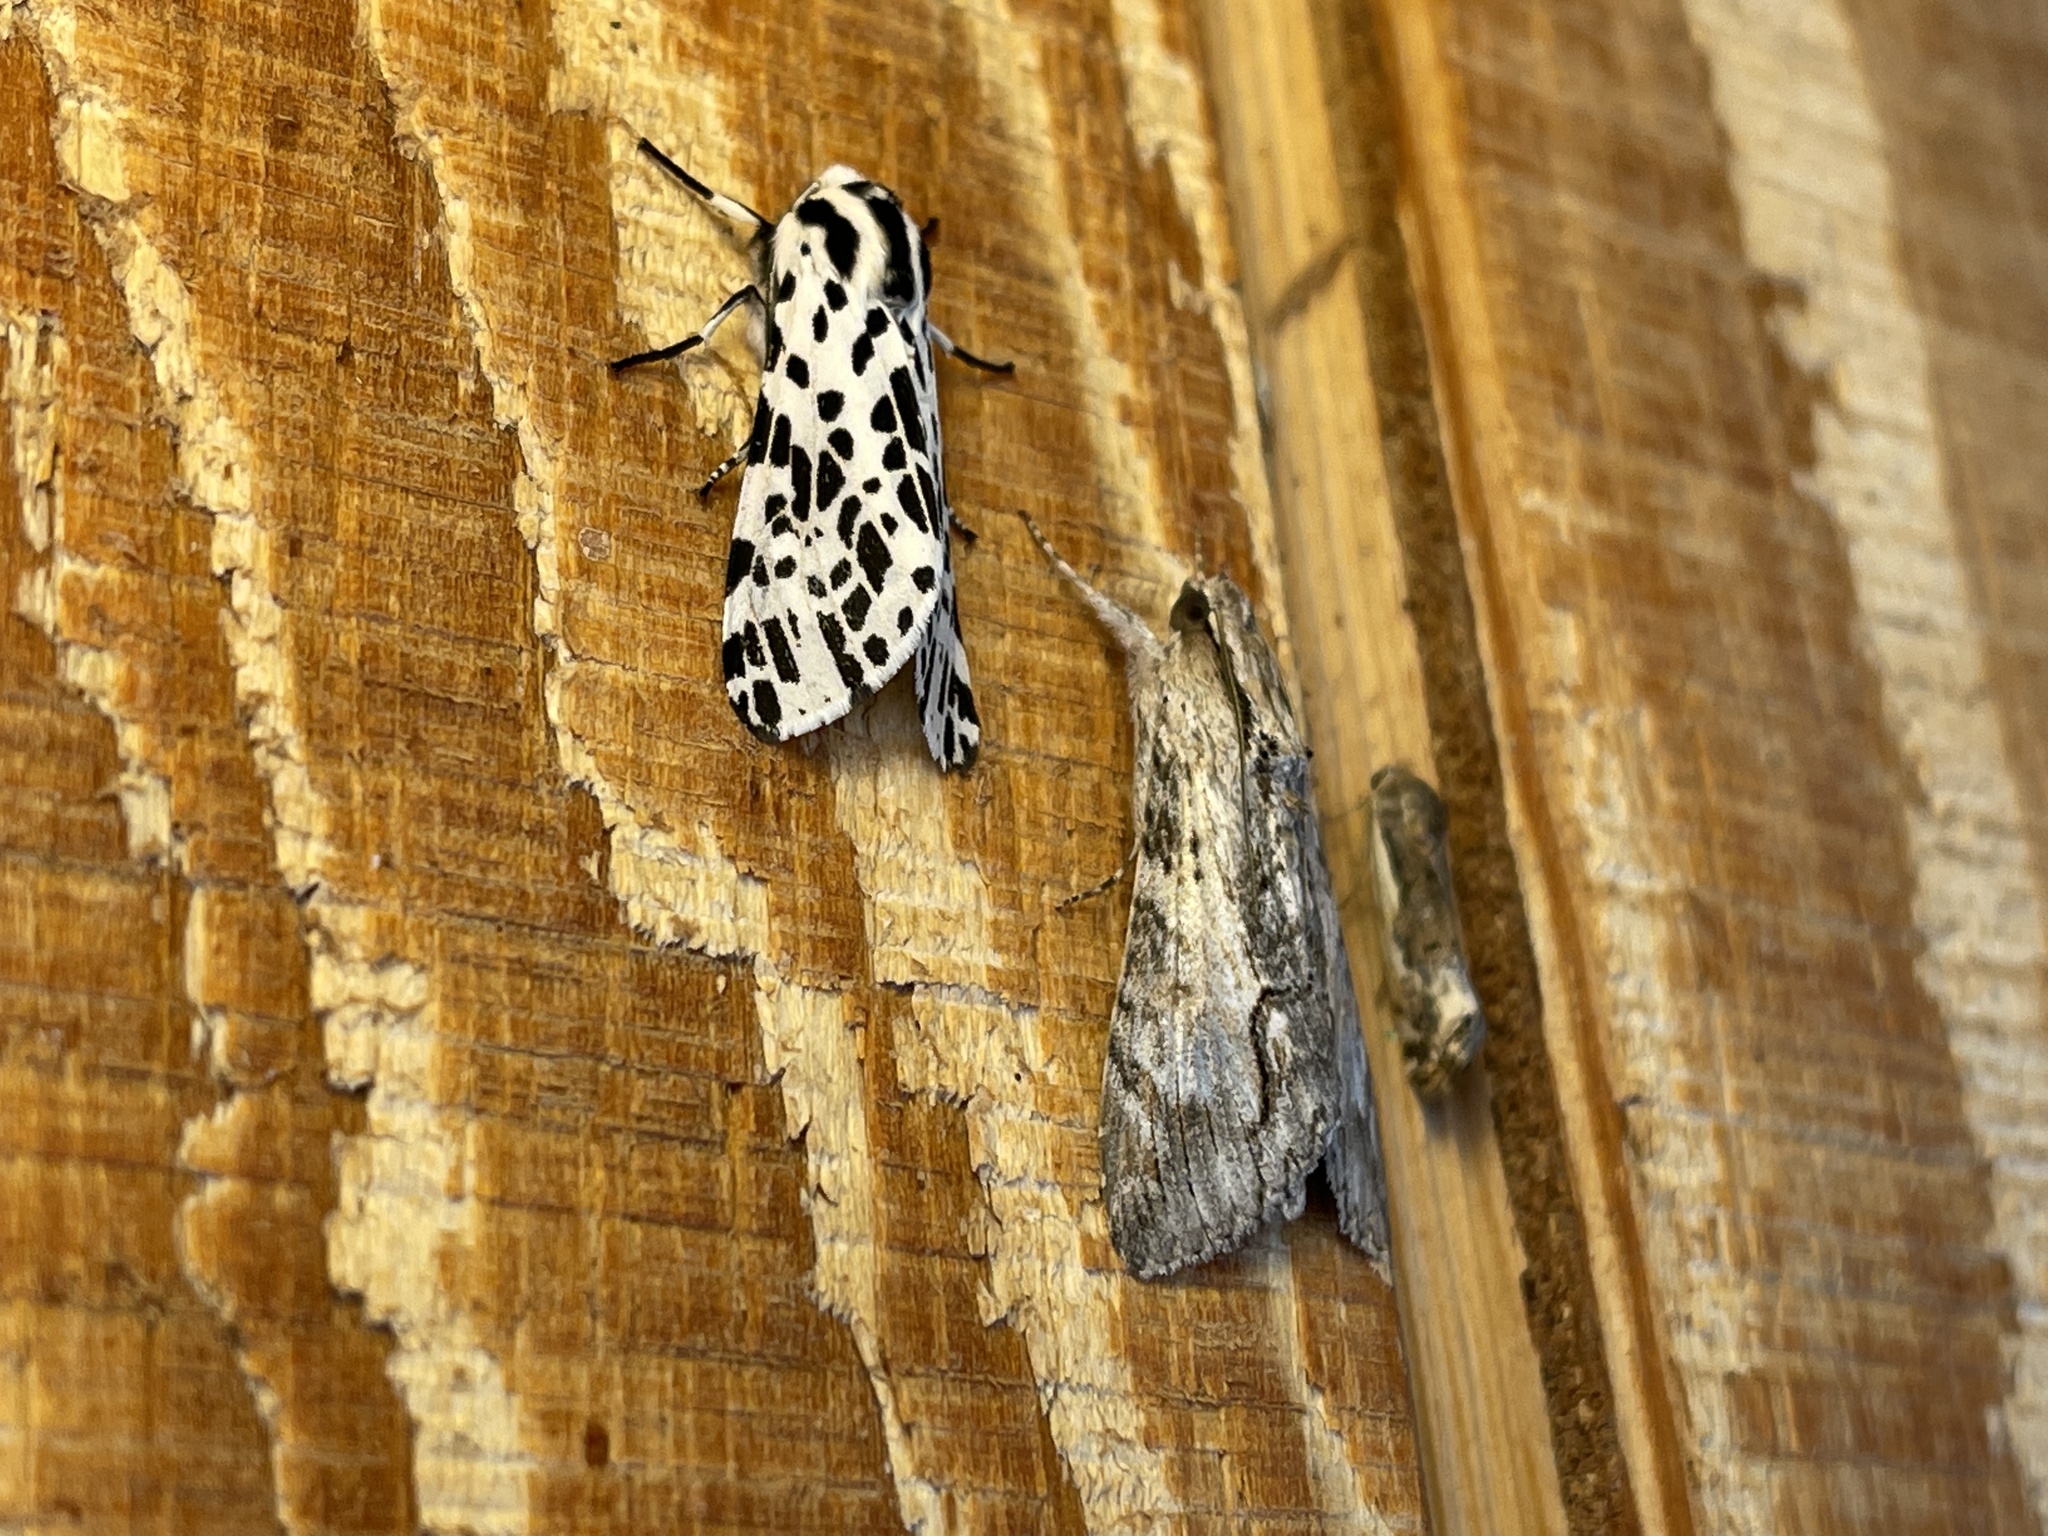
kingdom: Animalia
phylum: Arthropoda
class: Insecta
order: Lepidoptera
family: Erebidae
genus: Hypercompe
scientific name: Hypercompe permaculata
